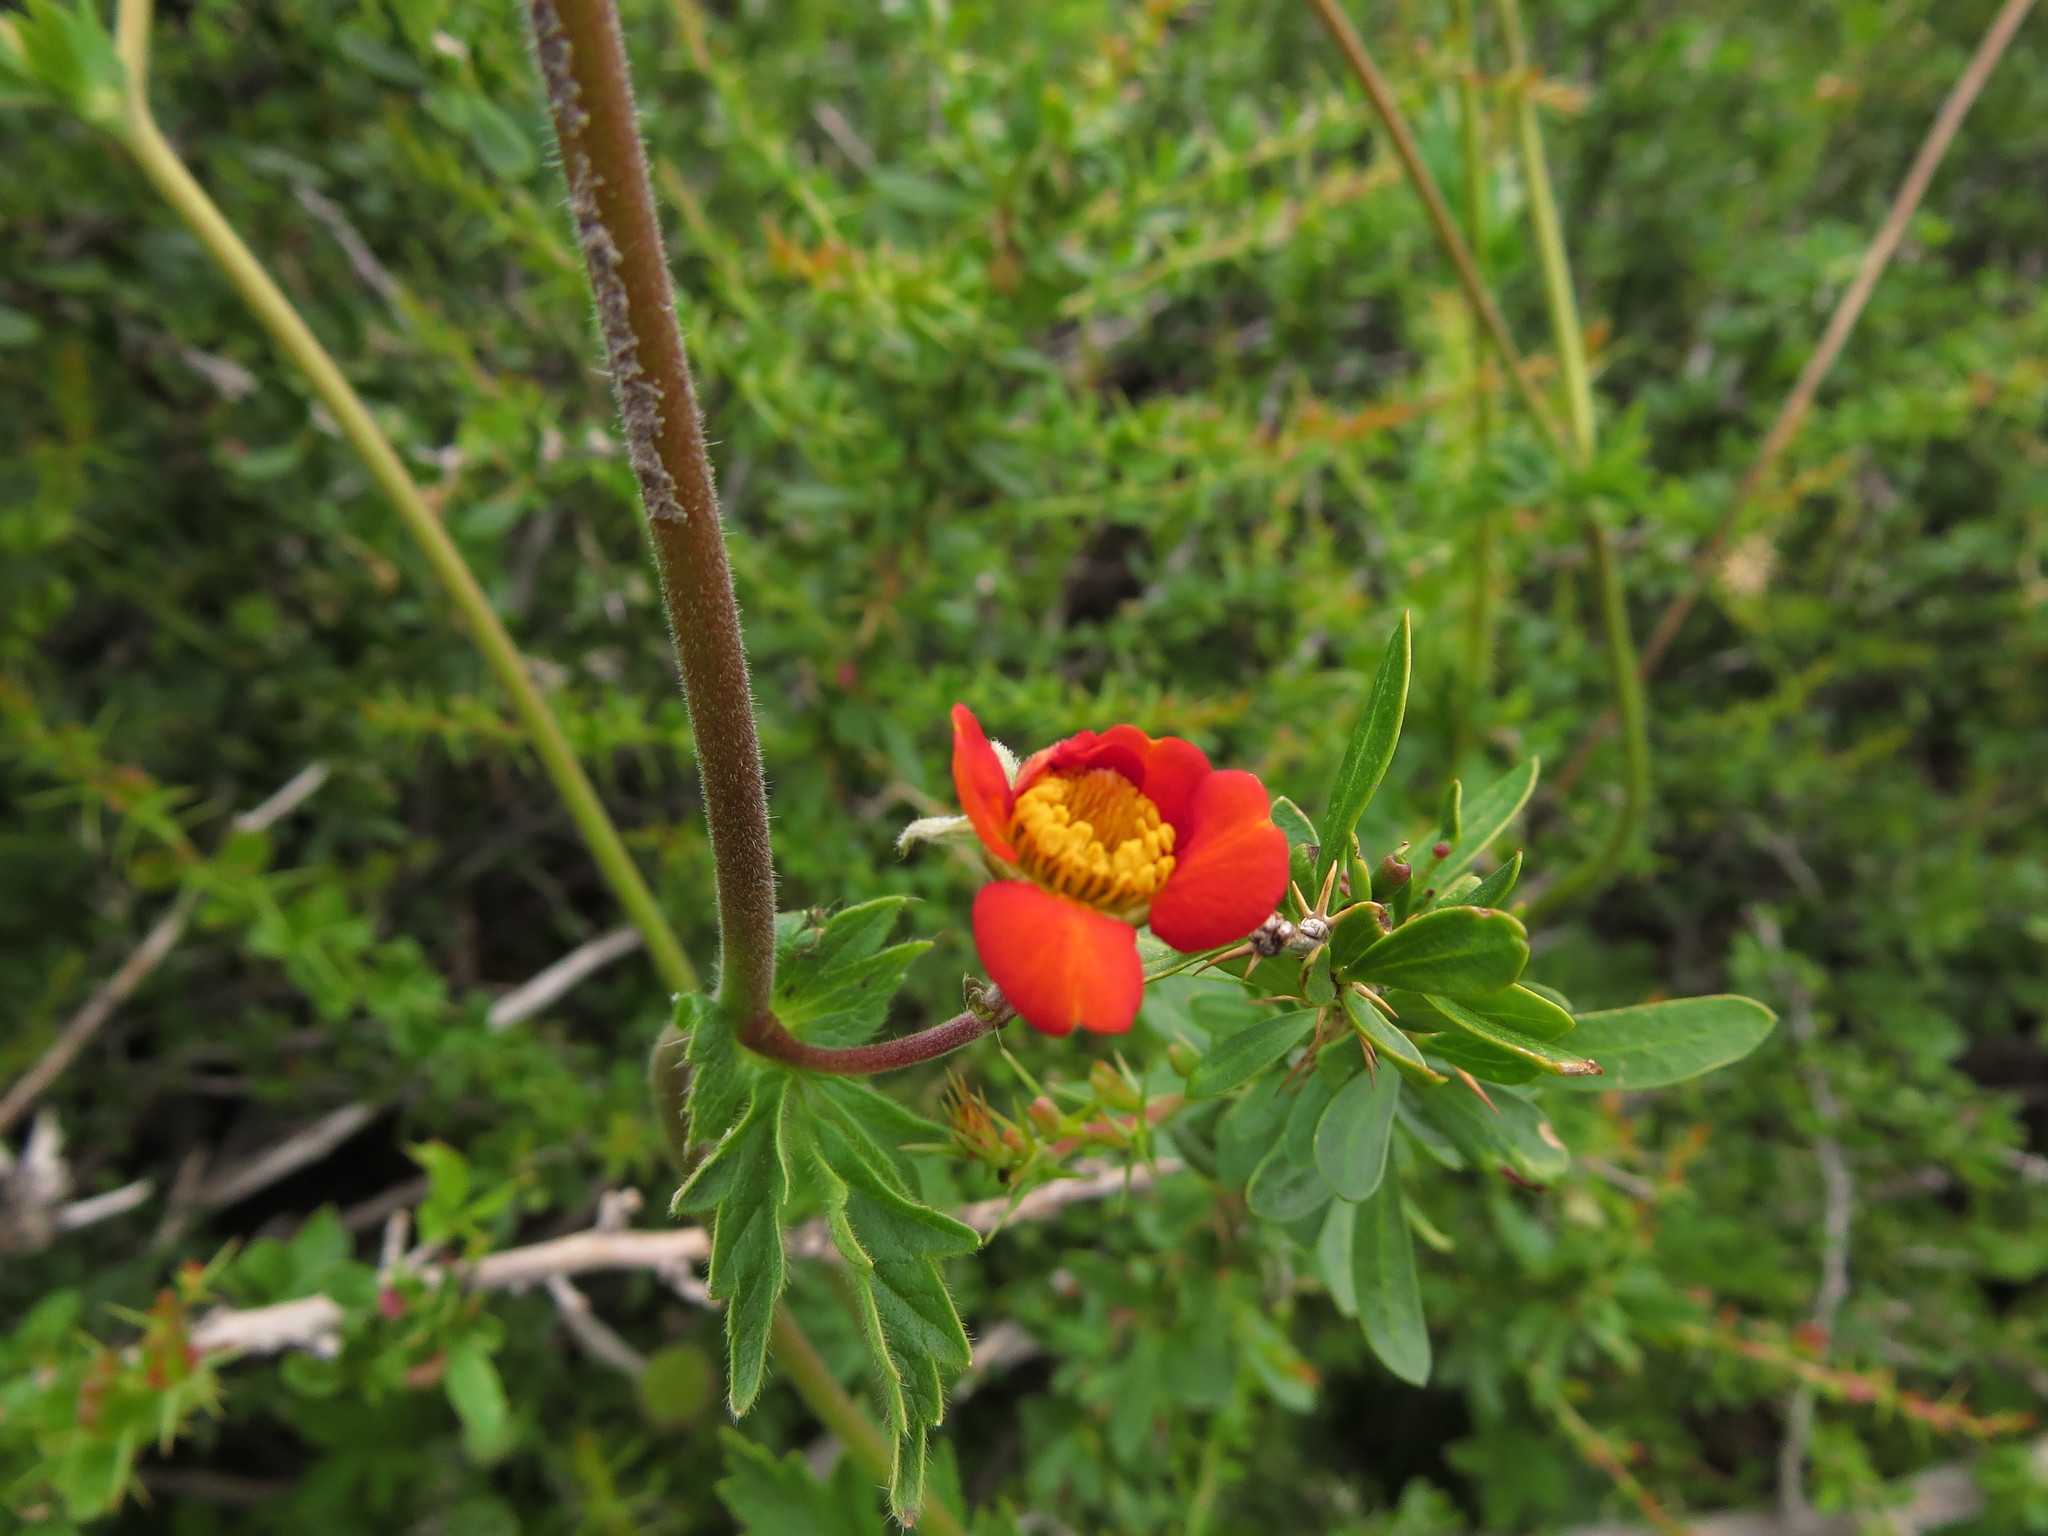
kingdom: Plantae
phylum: Tracheophyta
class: Magnoliopsida
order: Rosales
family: Rosaceae
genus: Geum
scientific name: Geum quellyon
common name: Scarlet avens
